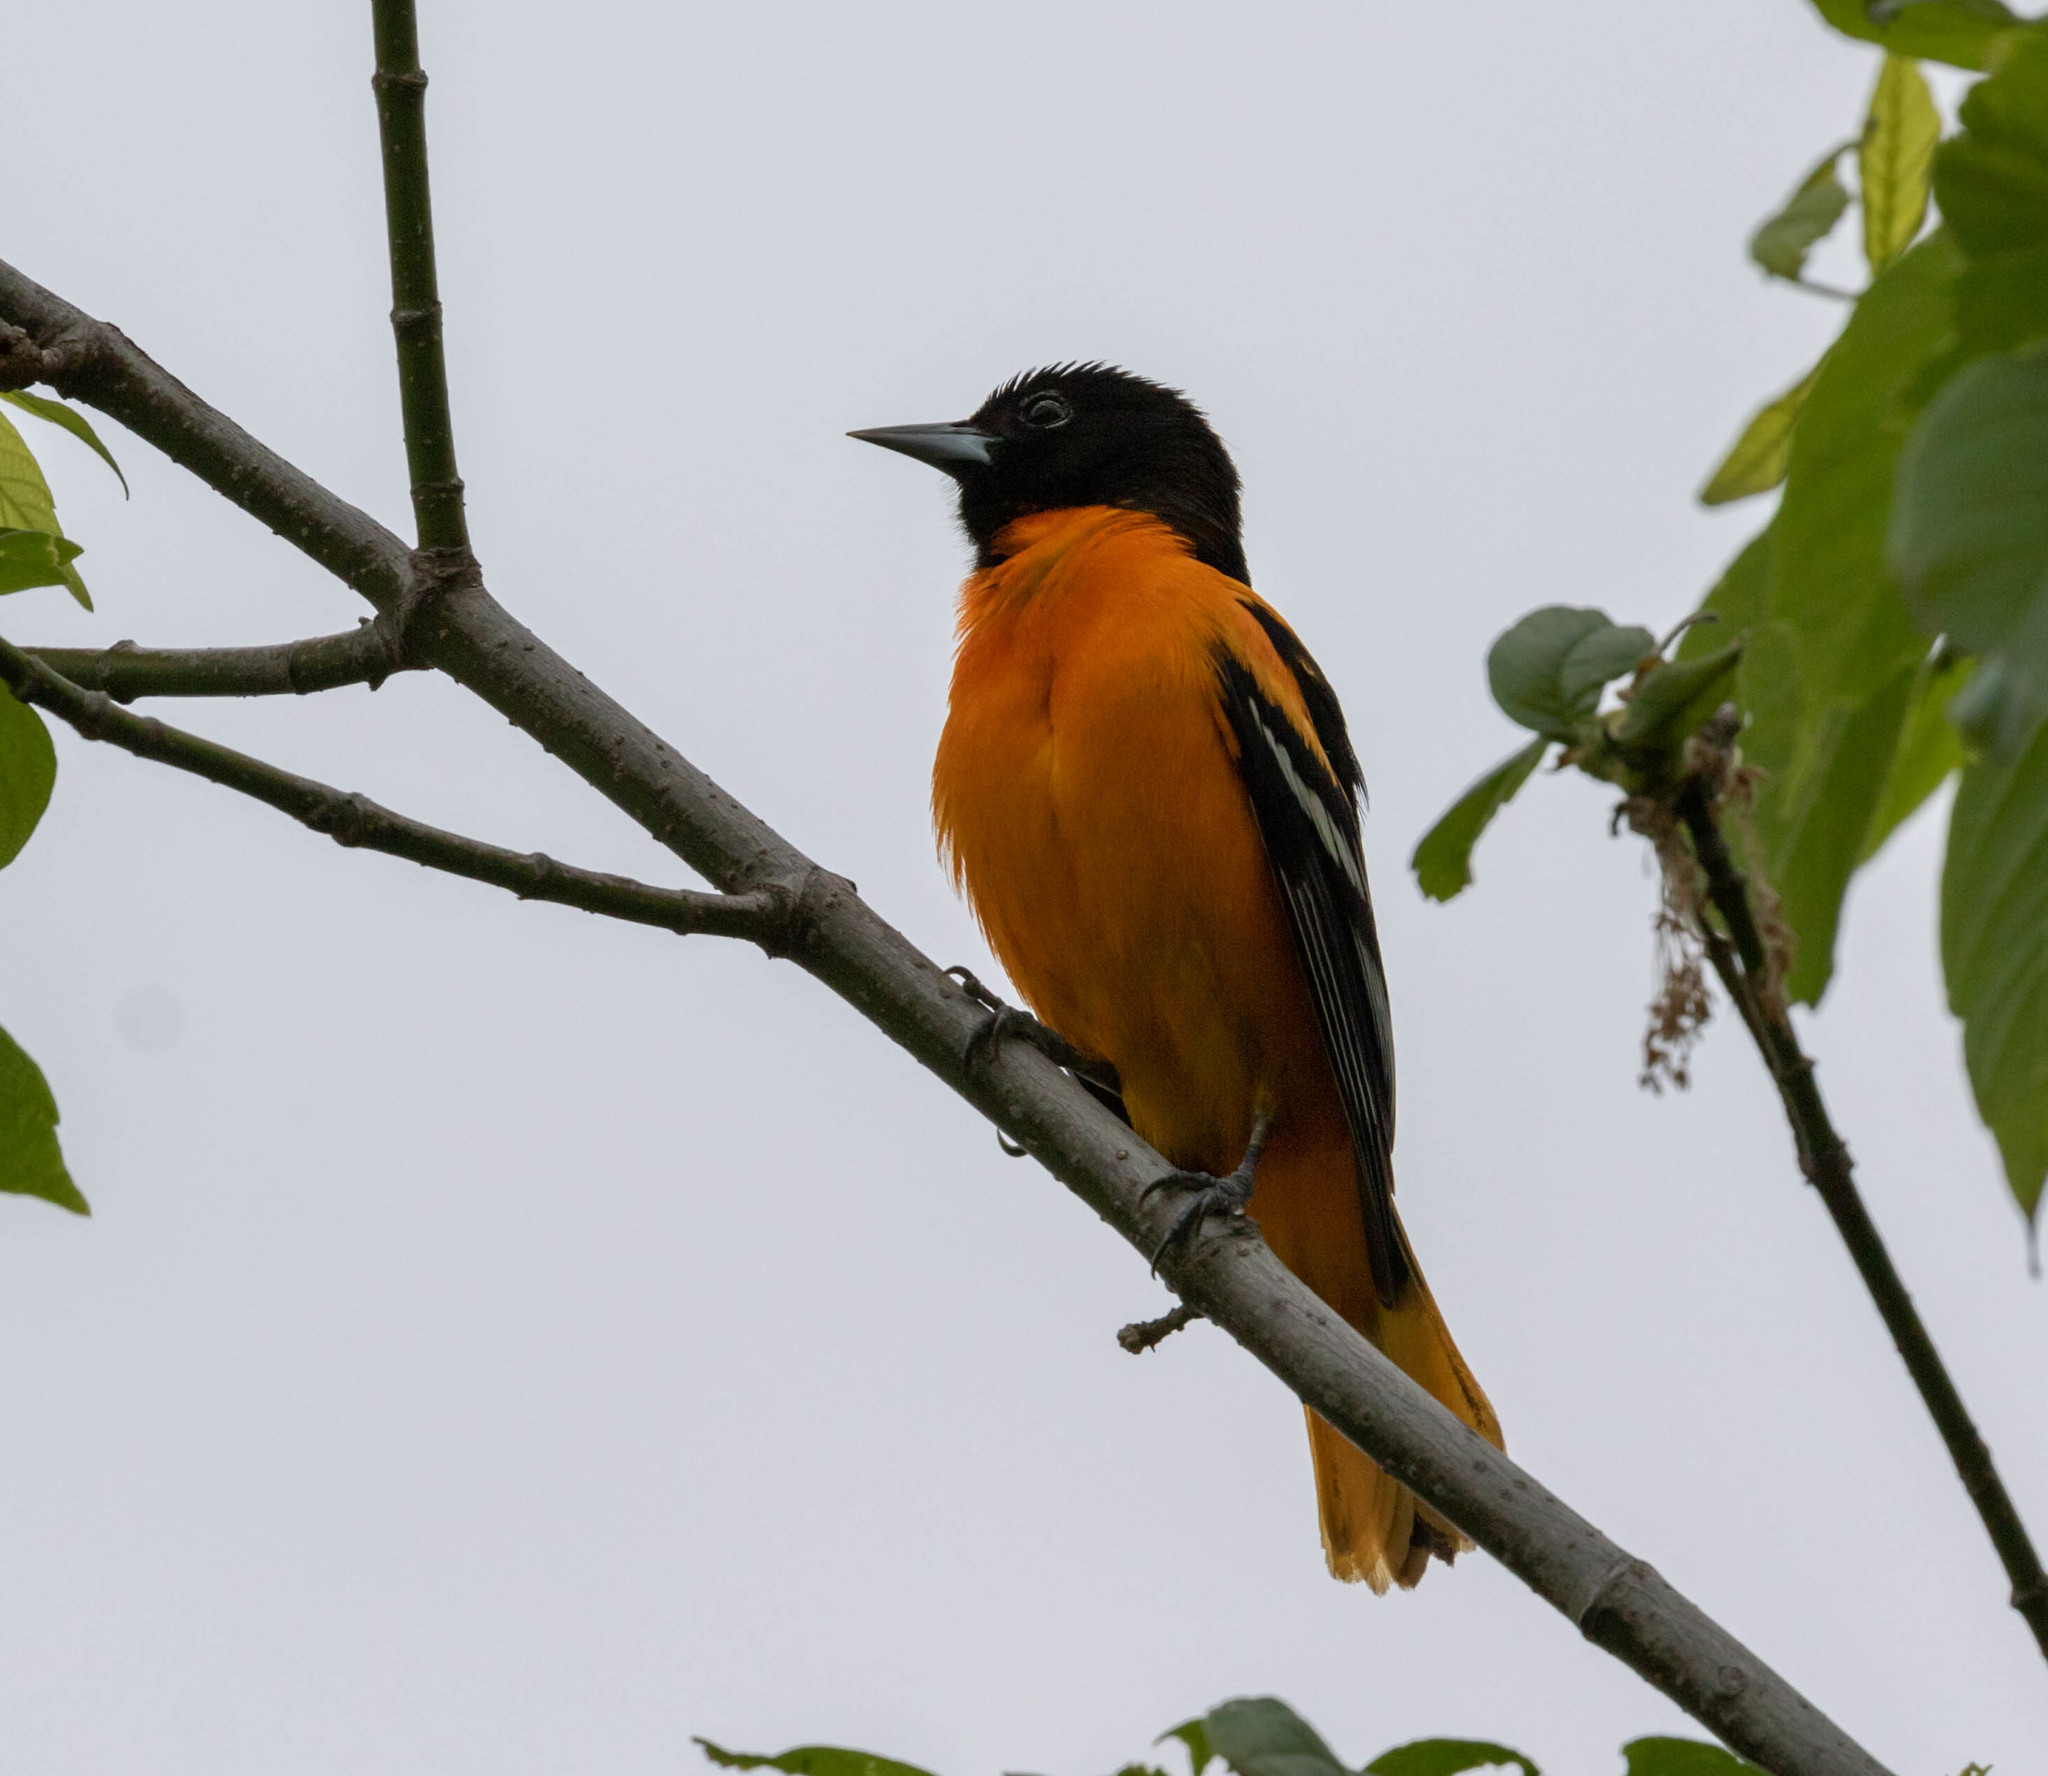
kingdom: Animalia
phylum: Chordata
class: Aves
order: Passeriformes
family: Icteridae
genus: Icterus
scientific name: Icterus galbula
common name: Baltimore oriole
